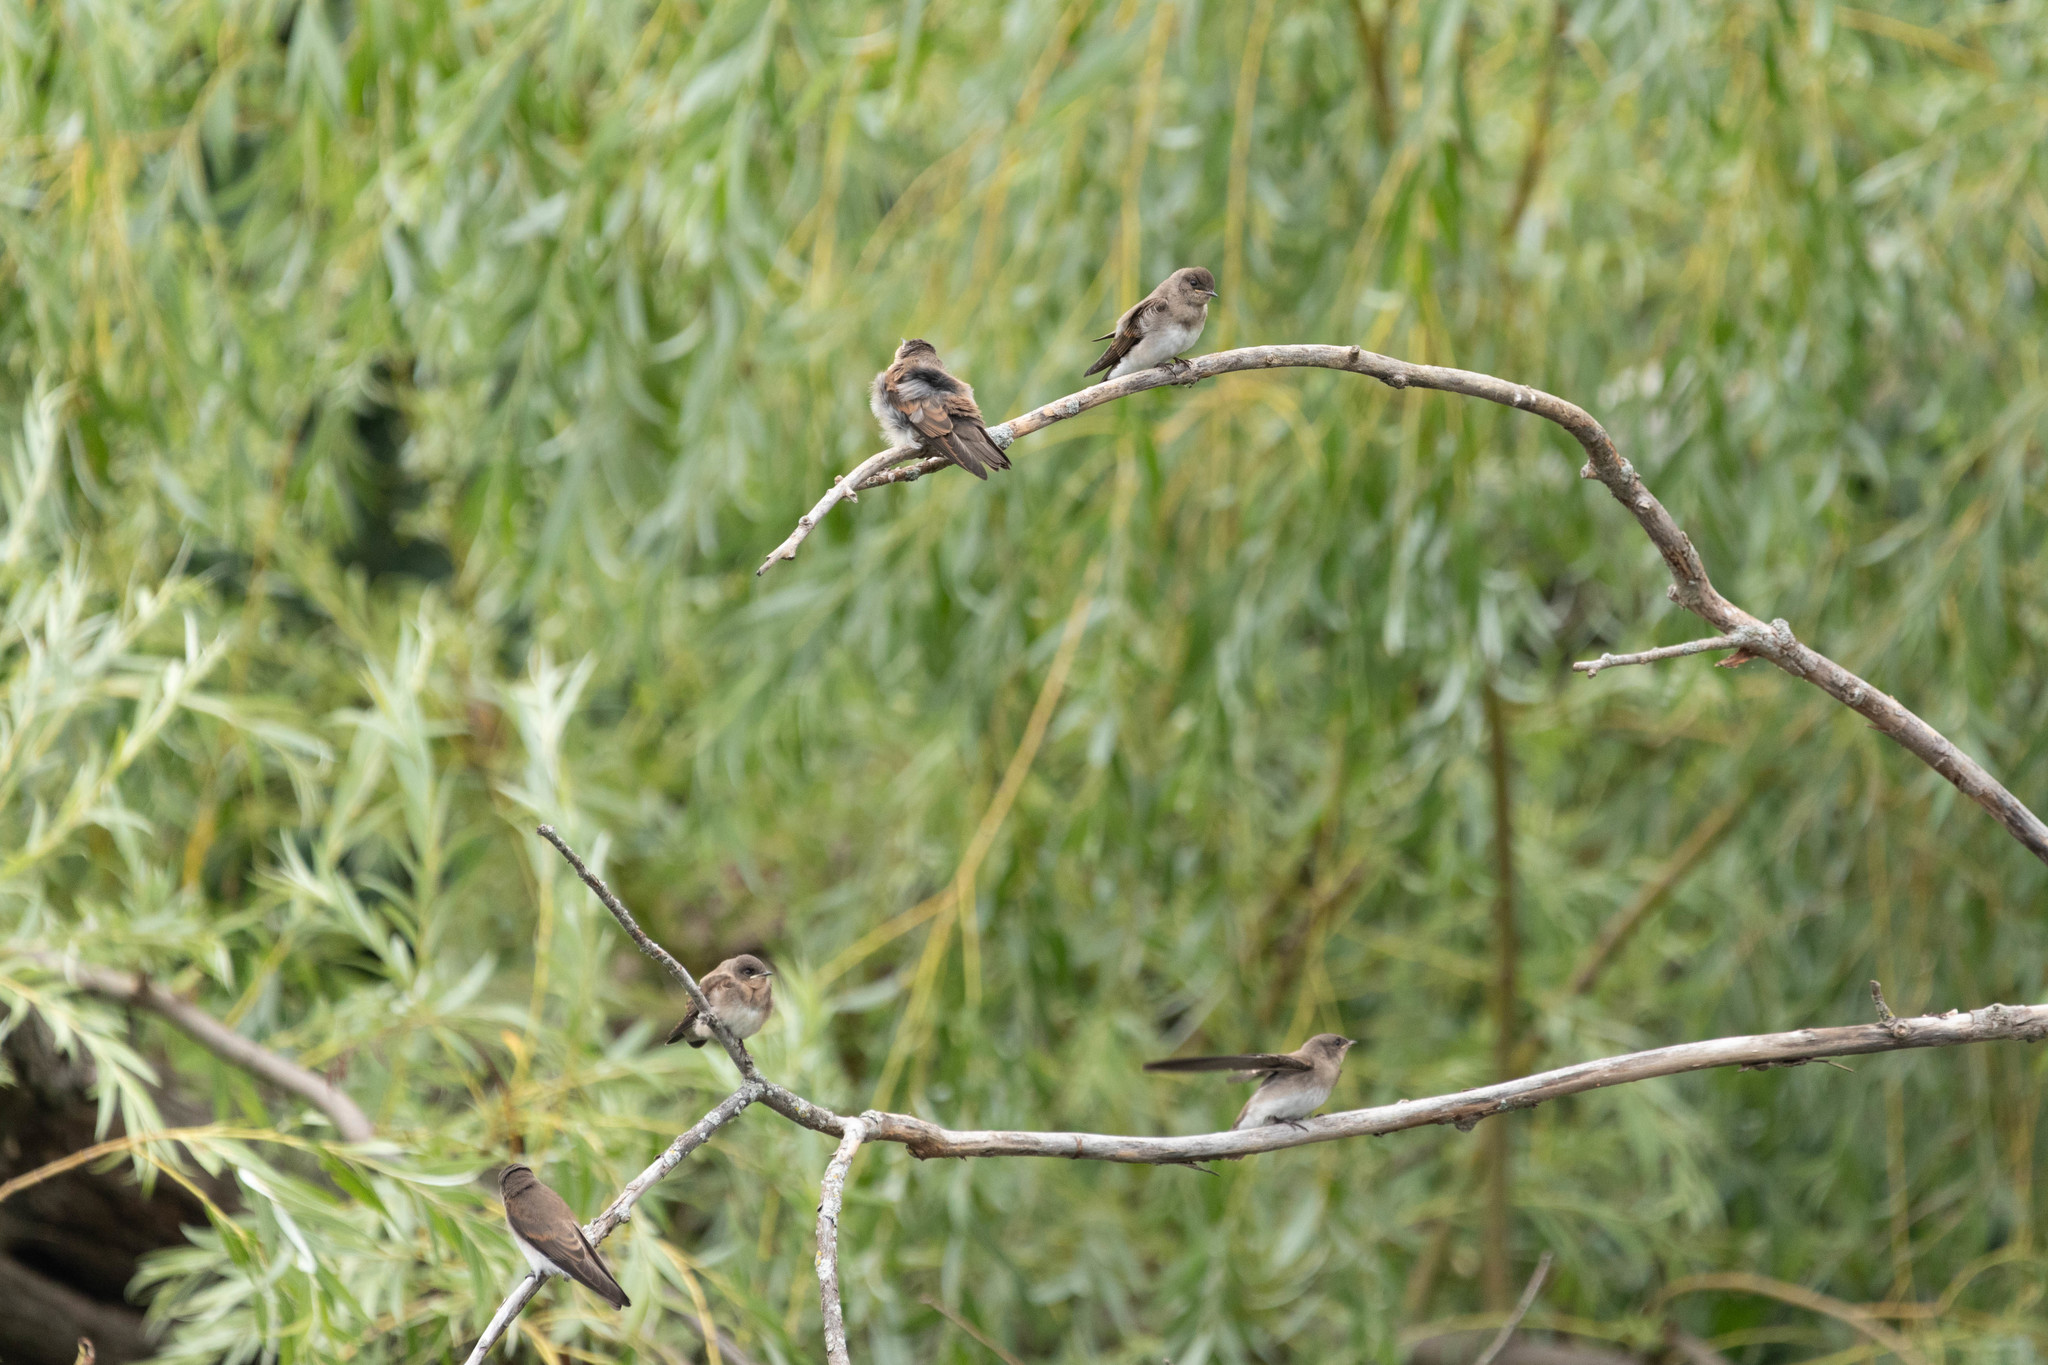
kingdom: Animalia
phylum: Chordata
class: Aves
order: Passeriformes
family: Hirundinidae
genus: Stelgidopteryx
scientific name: Stelgidopteryx serripennis
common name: Northern rough-winged swallow
